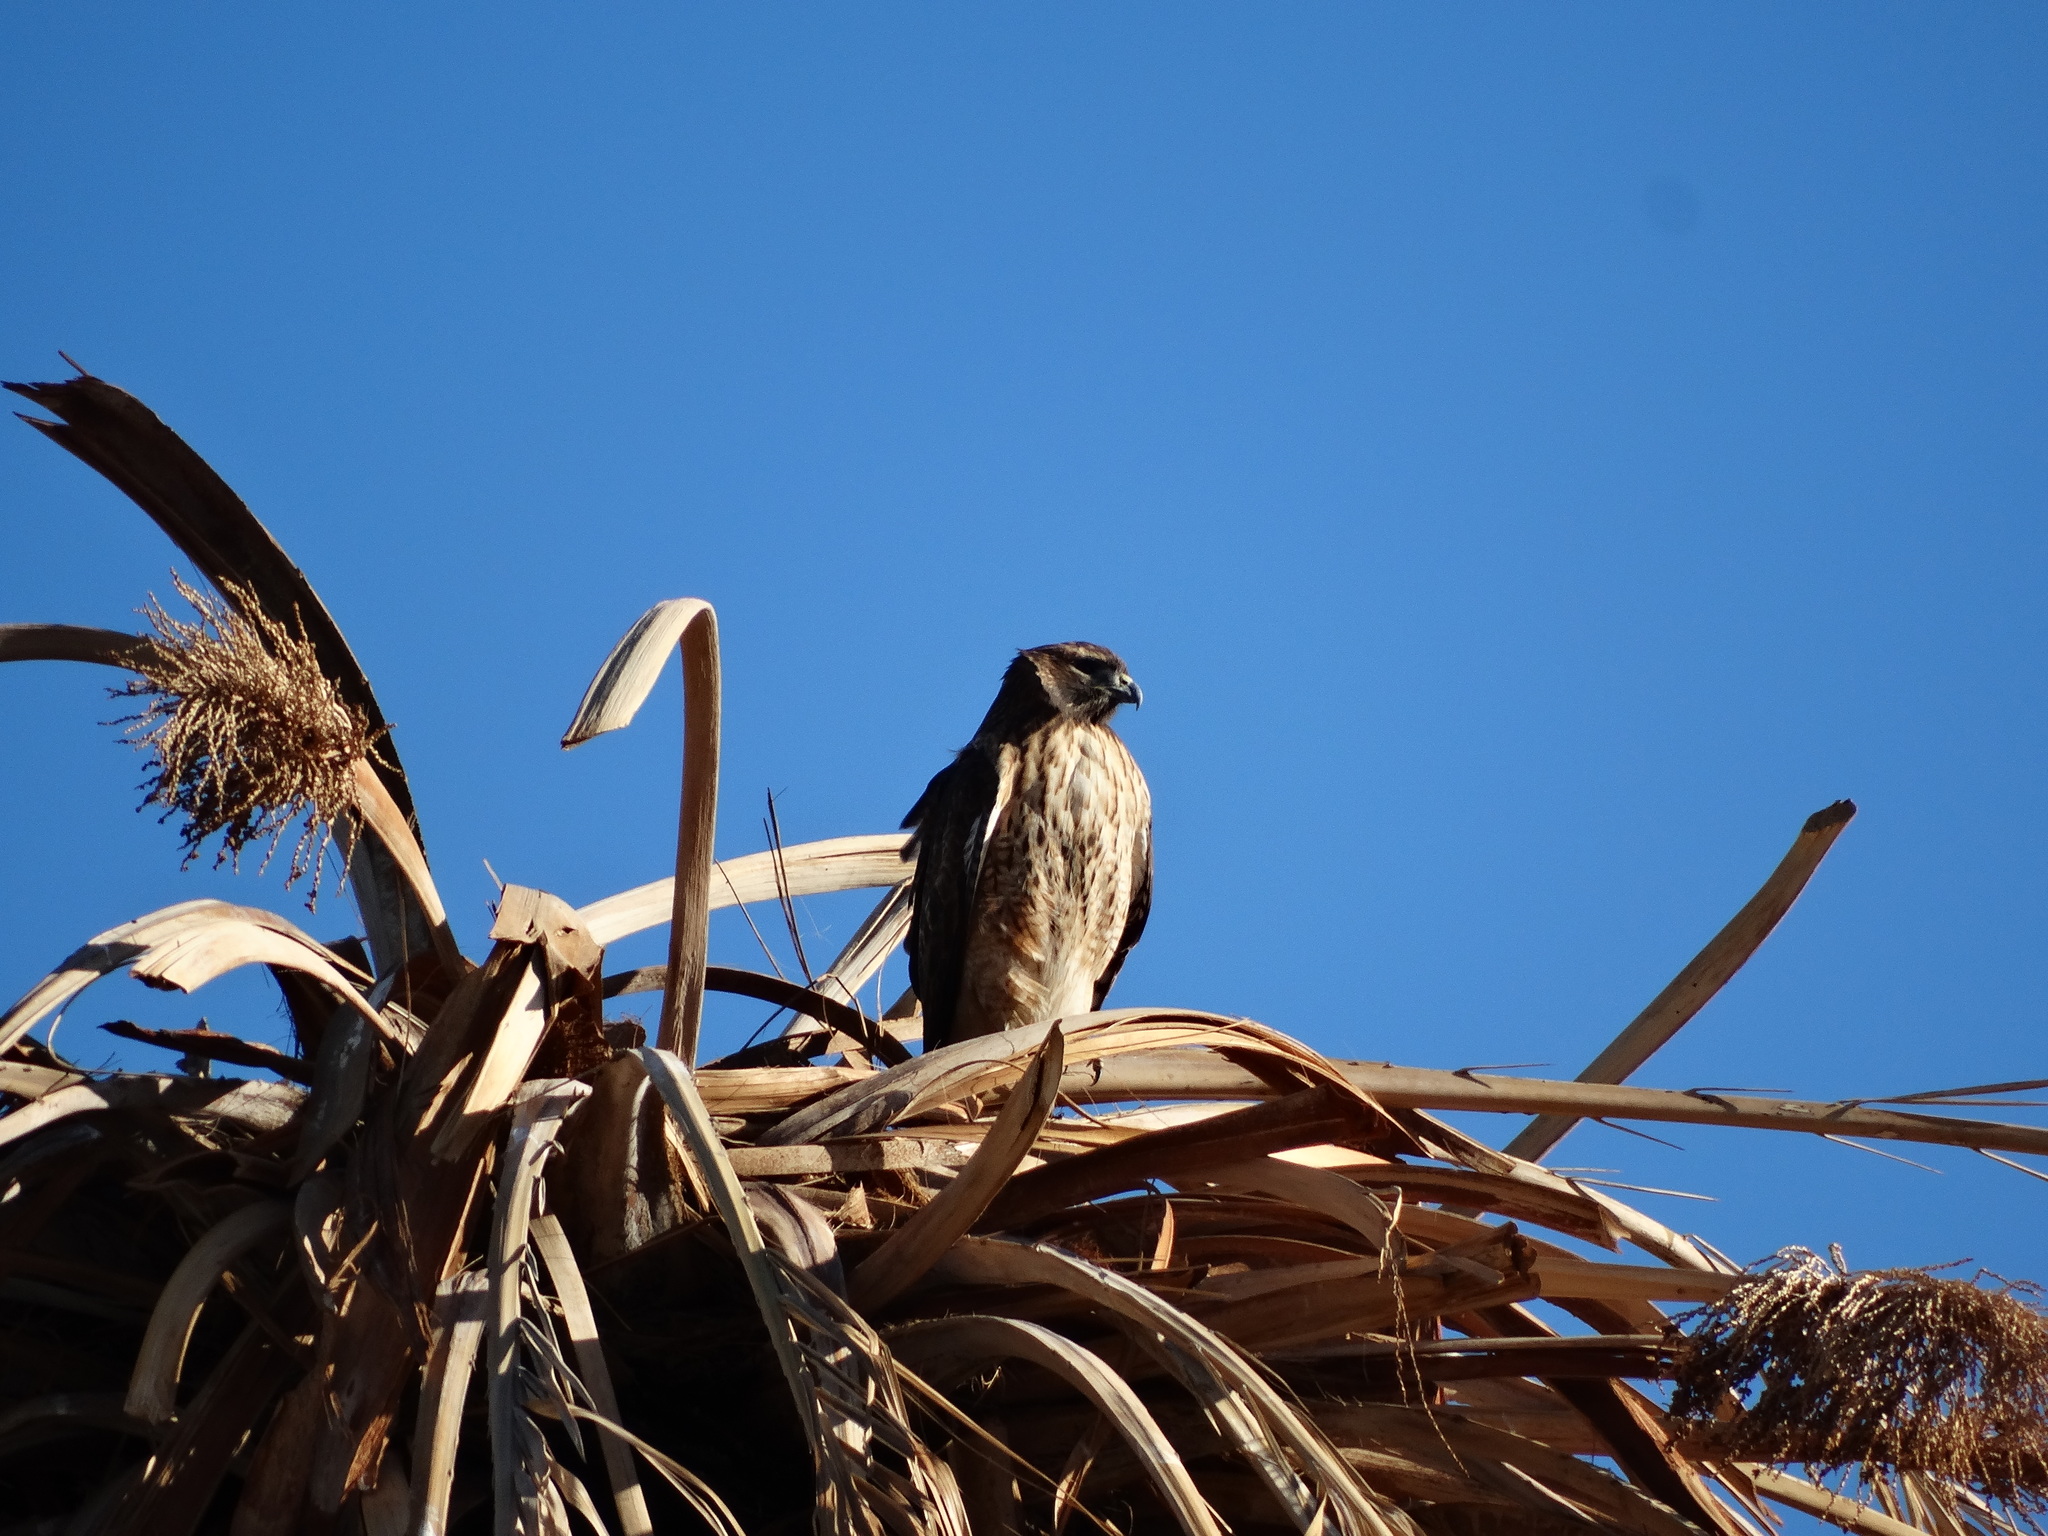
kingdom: Animalia
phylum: Chordata
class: Aves
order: Accipitriformes
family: Accipitridae
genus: Buteo
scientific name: Buteo jamaicensis
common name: Red-tailed hawk
